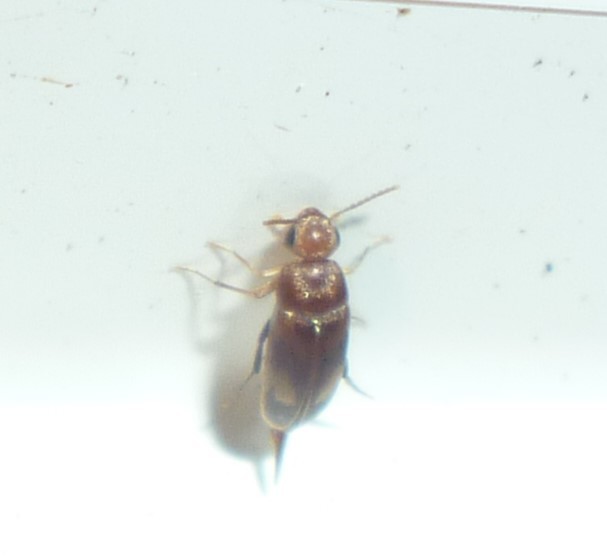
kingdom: Animalia
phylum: Arthropoda
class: Insecta
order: Coleoptera
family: Mordellidae
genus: Mordellistena
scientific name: Mordellistena masoni
